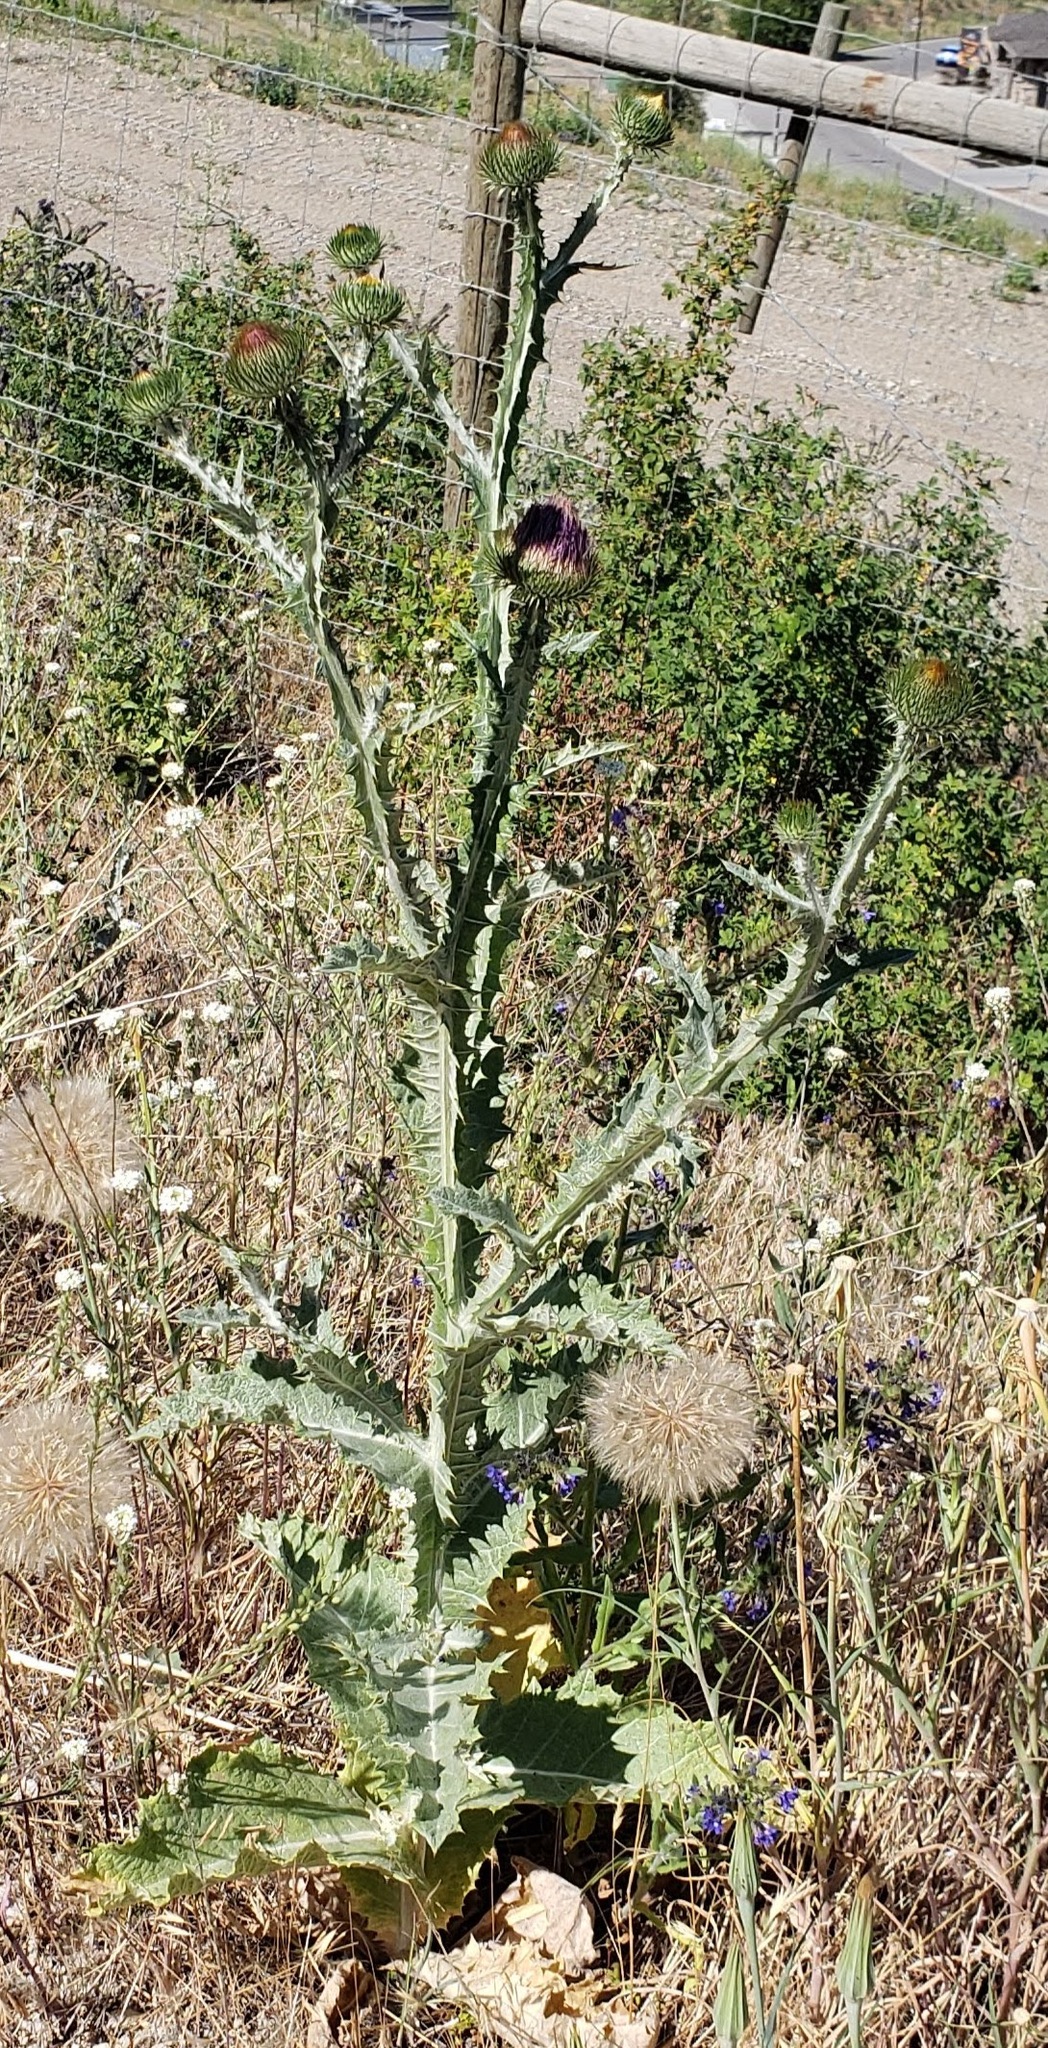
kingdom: Plantae
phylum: Tracheophyta
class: Magnoliopsida
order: Asterales
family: Asteraceae
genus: Onopordum
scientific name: Onopordum acanthium
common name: Scotch thistle
